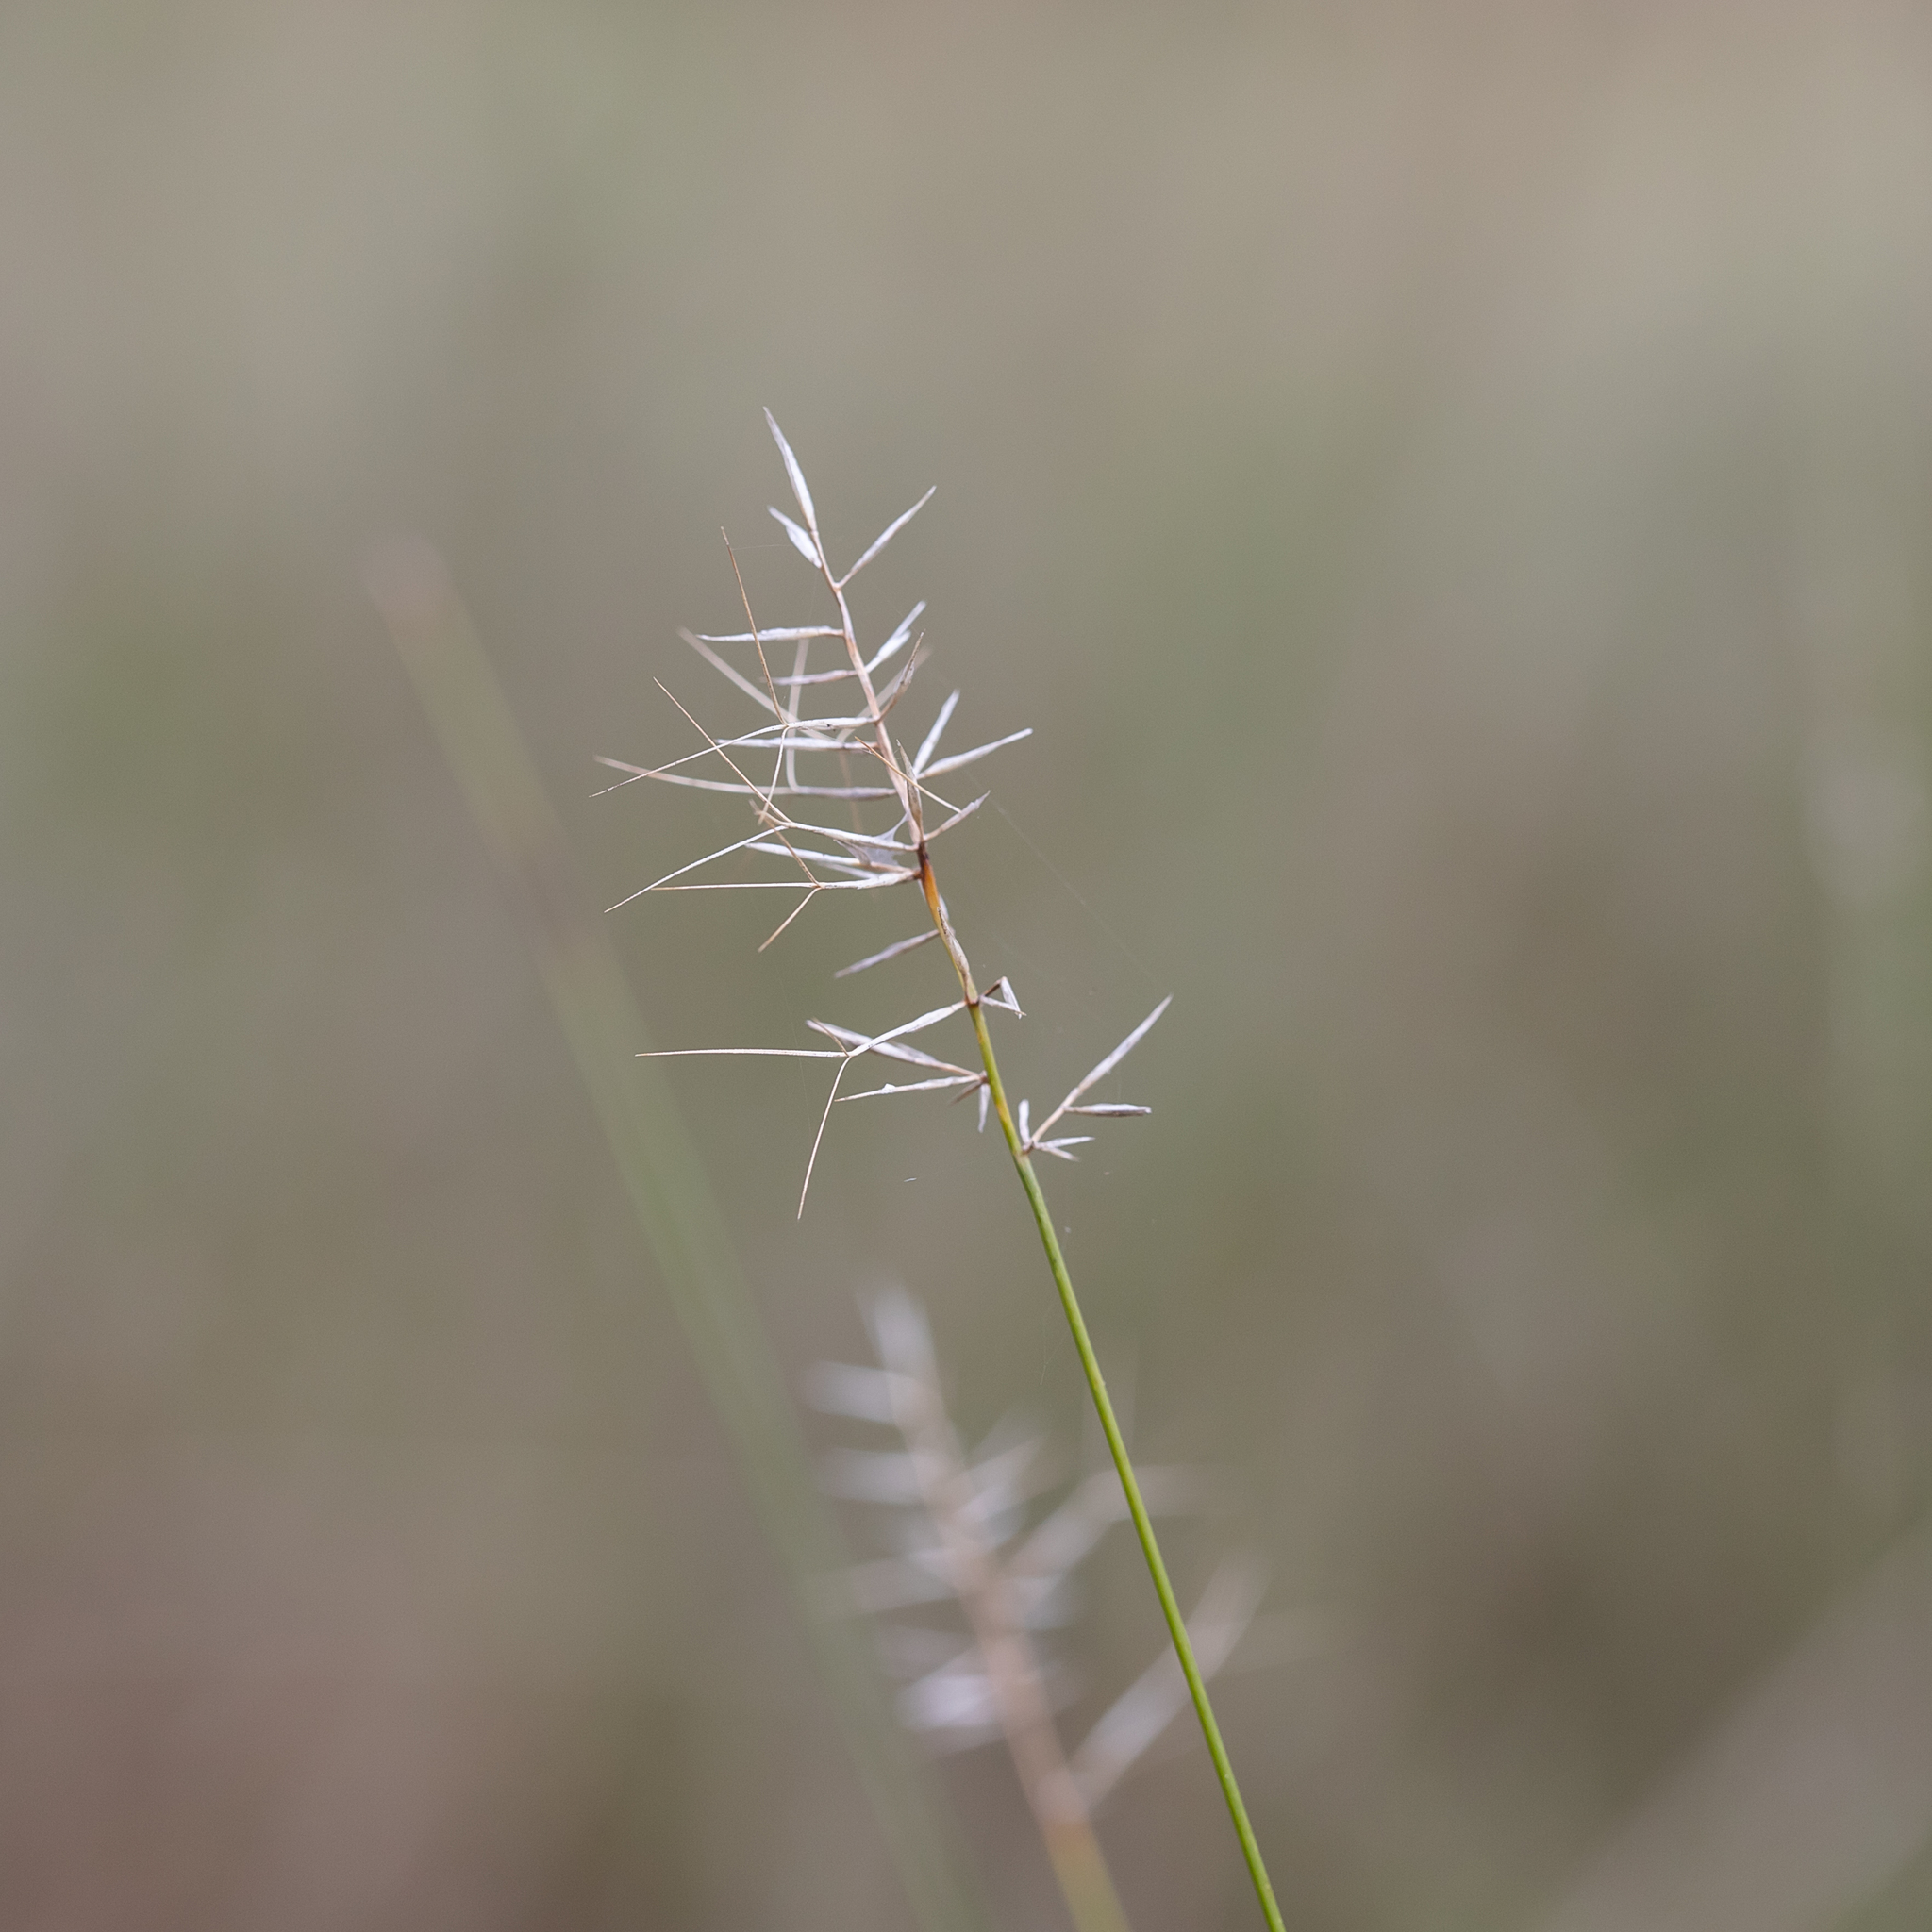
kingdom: Plantae
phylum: Tracheophyta
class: Liliopsida
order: Poales
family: Poaceae
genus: Aristida
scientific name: Aristida caput-medusae
